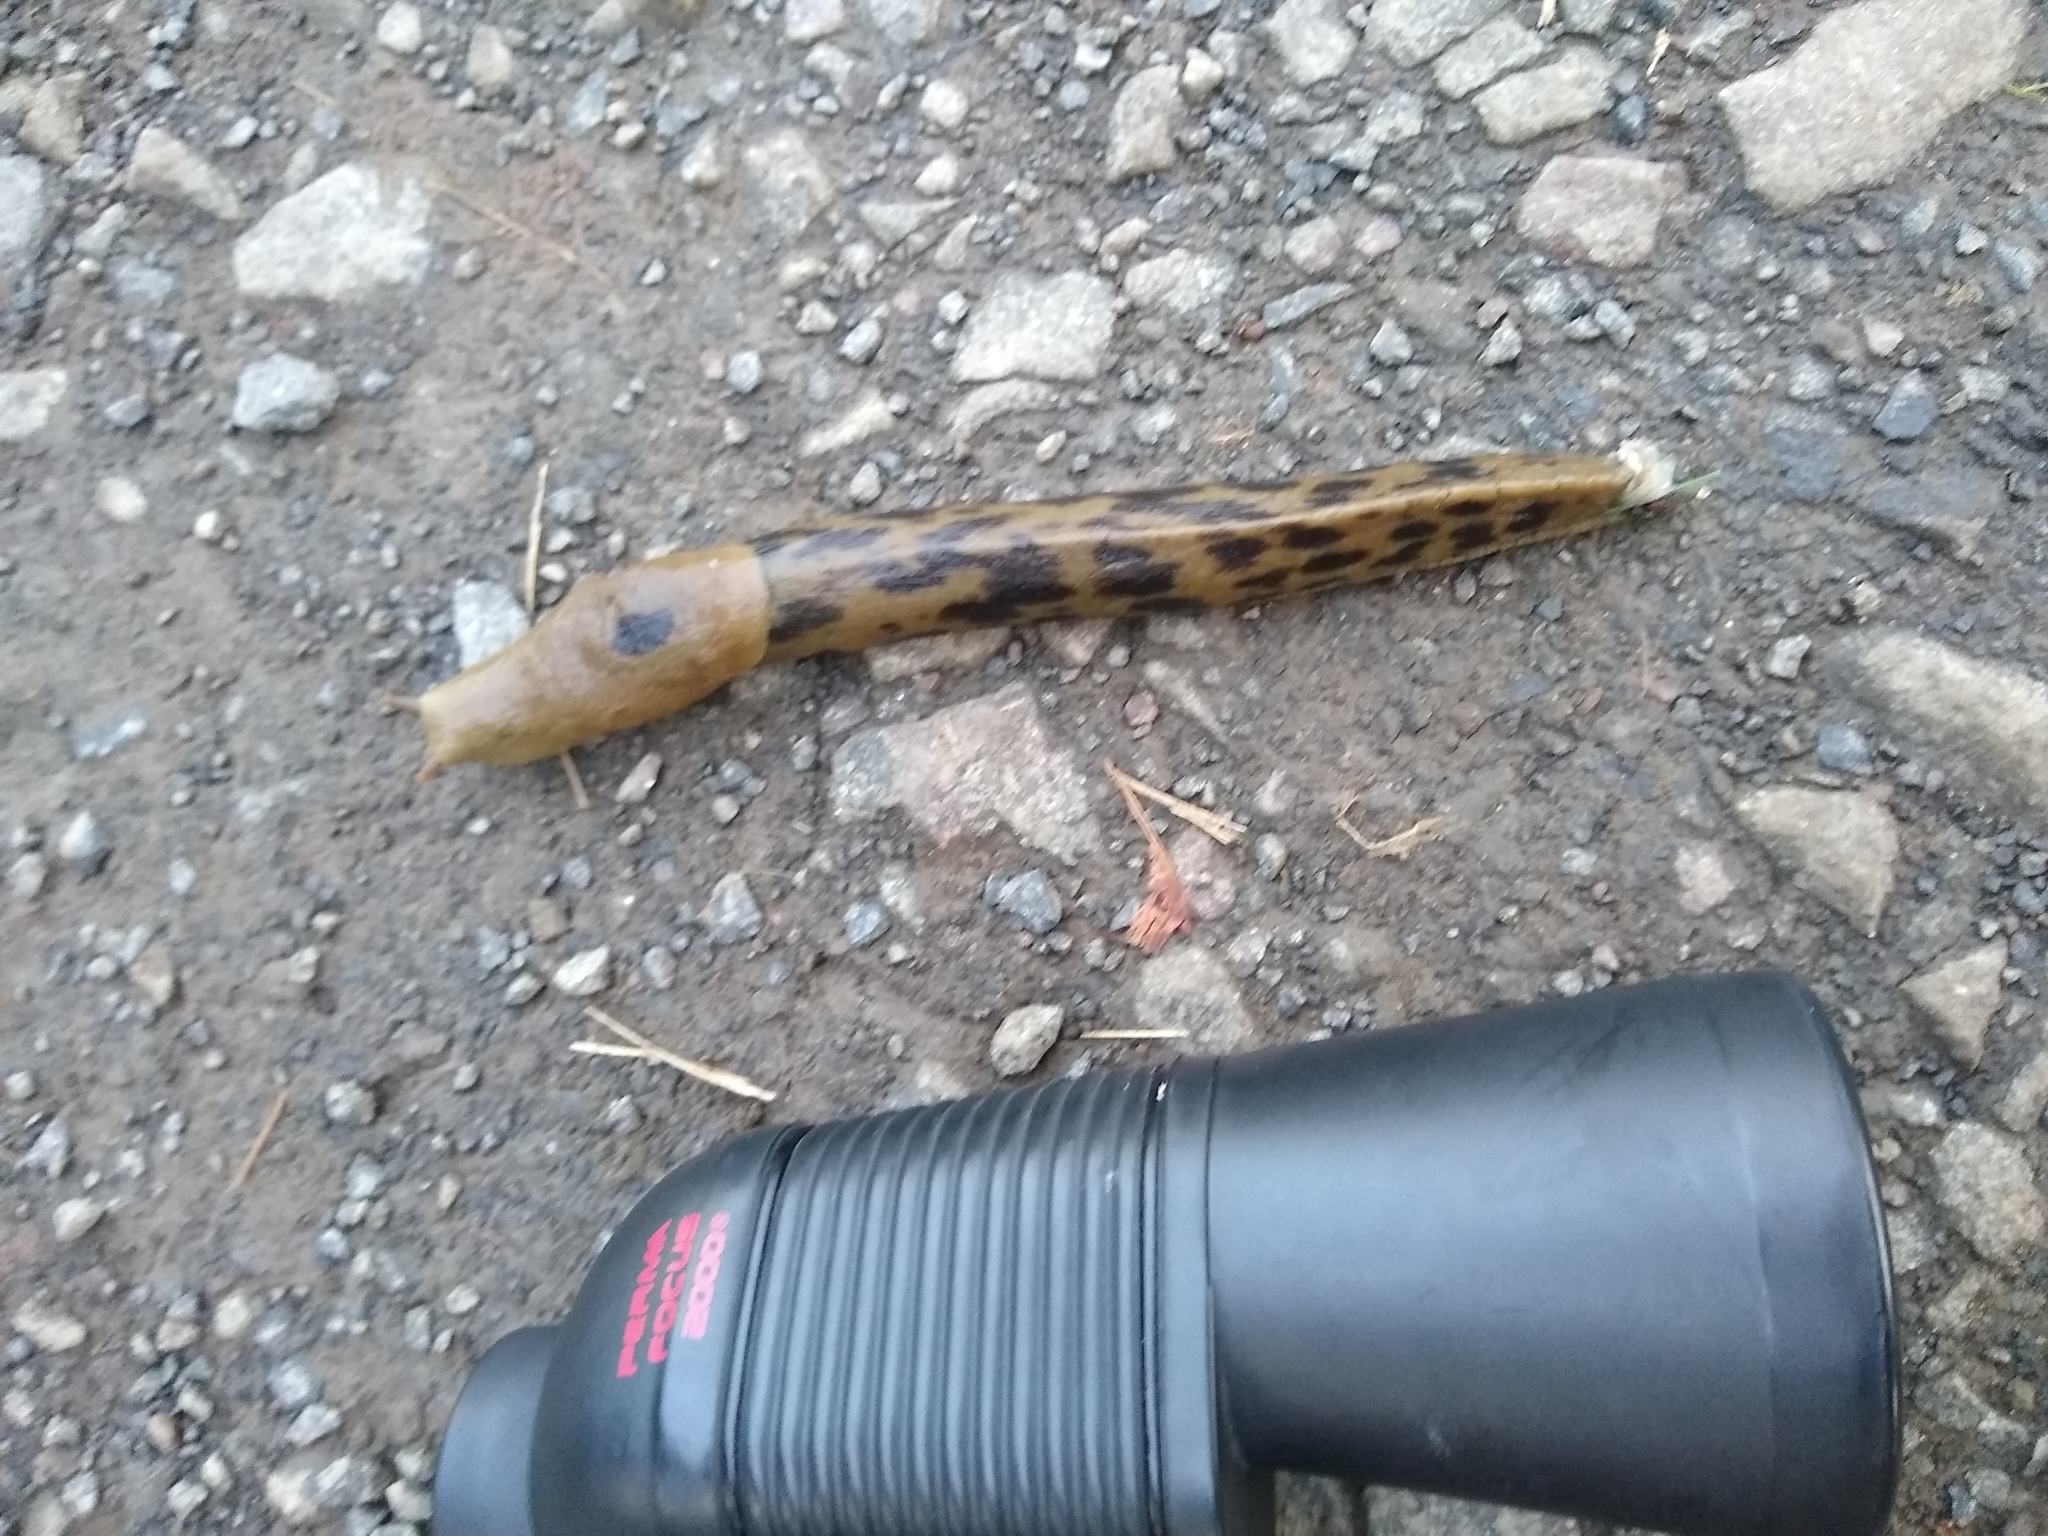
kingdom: Animalia
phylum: Mollusca
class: Gastropoda
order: Stylommatophora
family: Ariolimacidae
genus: Ariolimax
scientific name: Ariolimax columbianus
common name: Pacific banana slug
